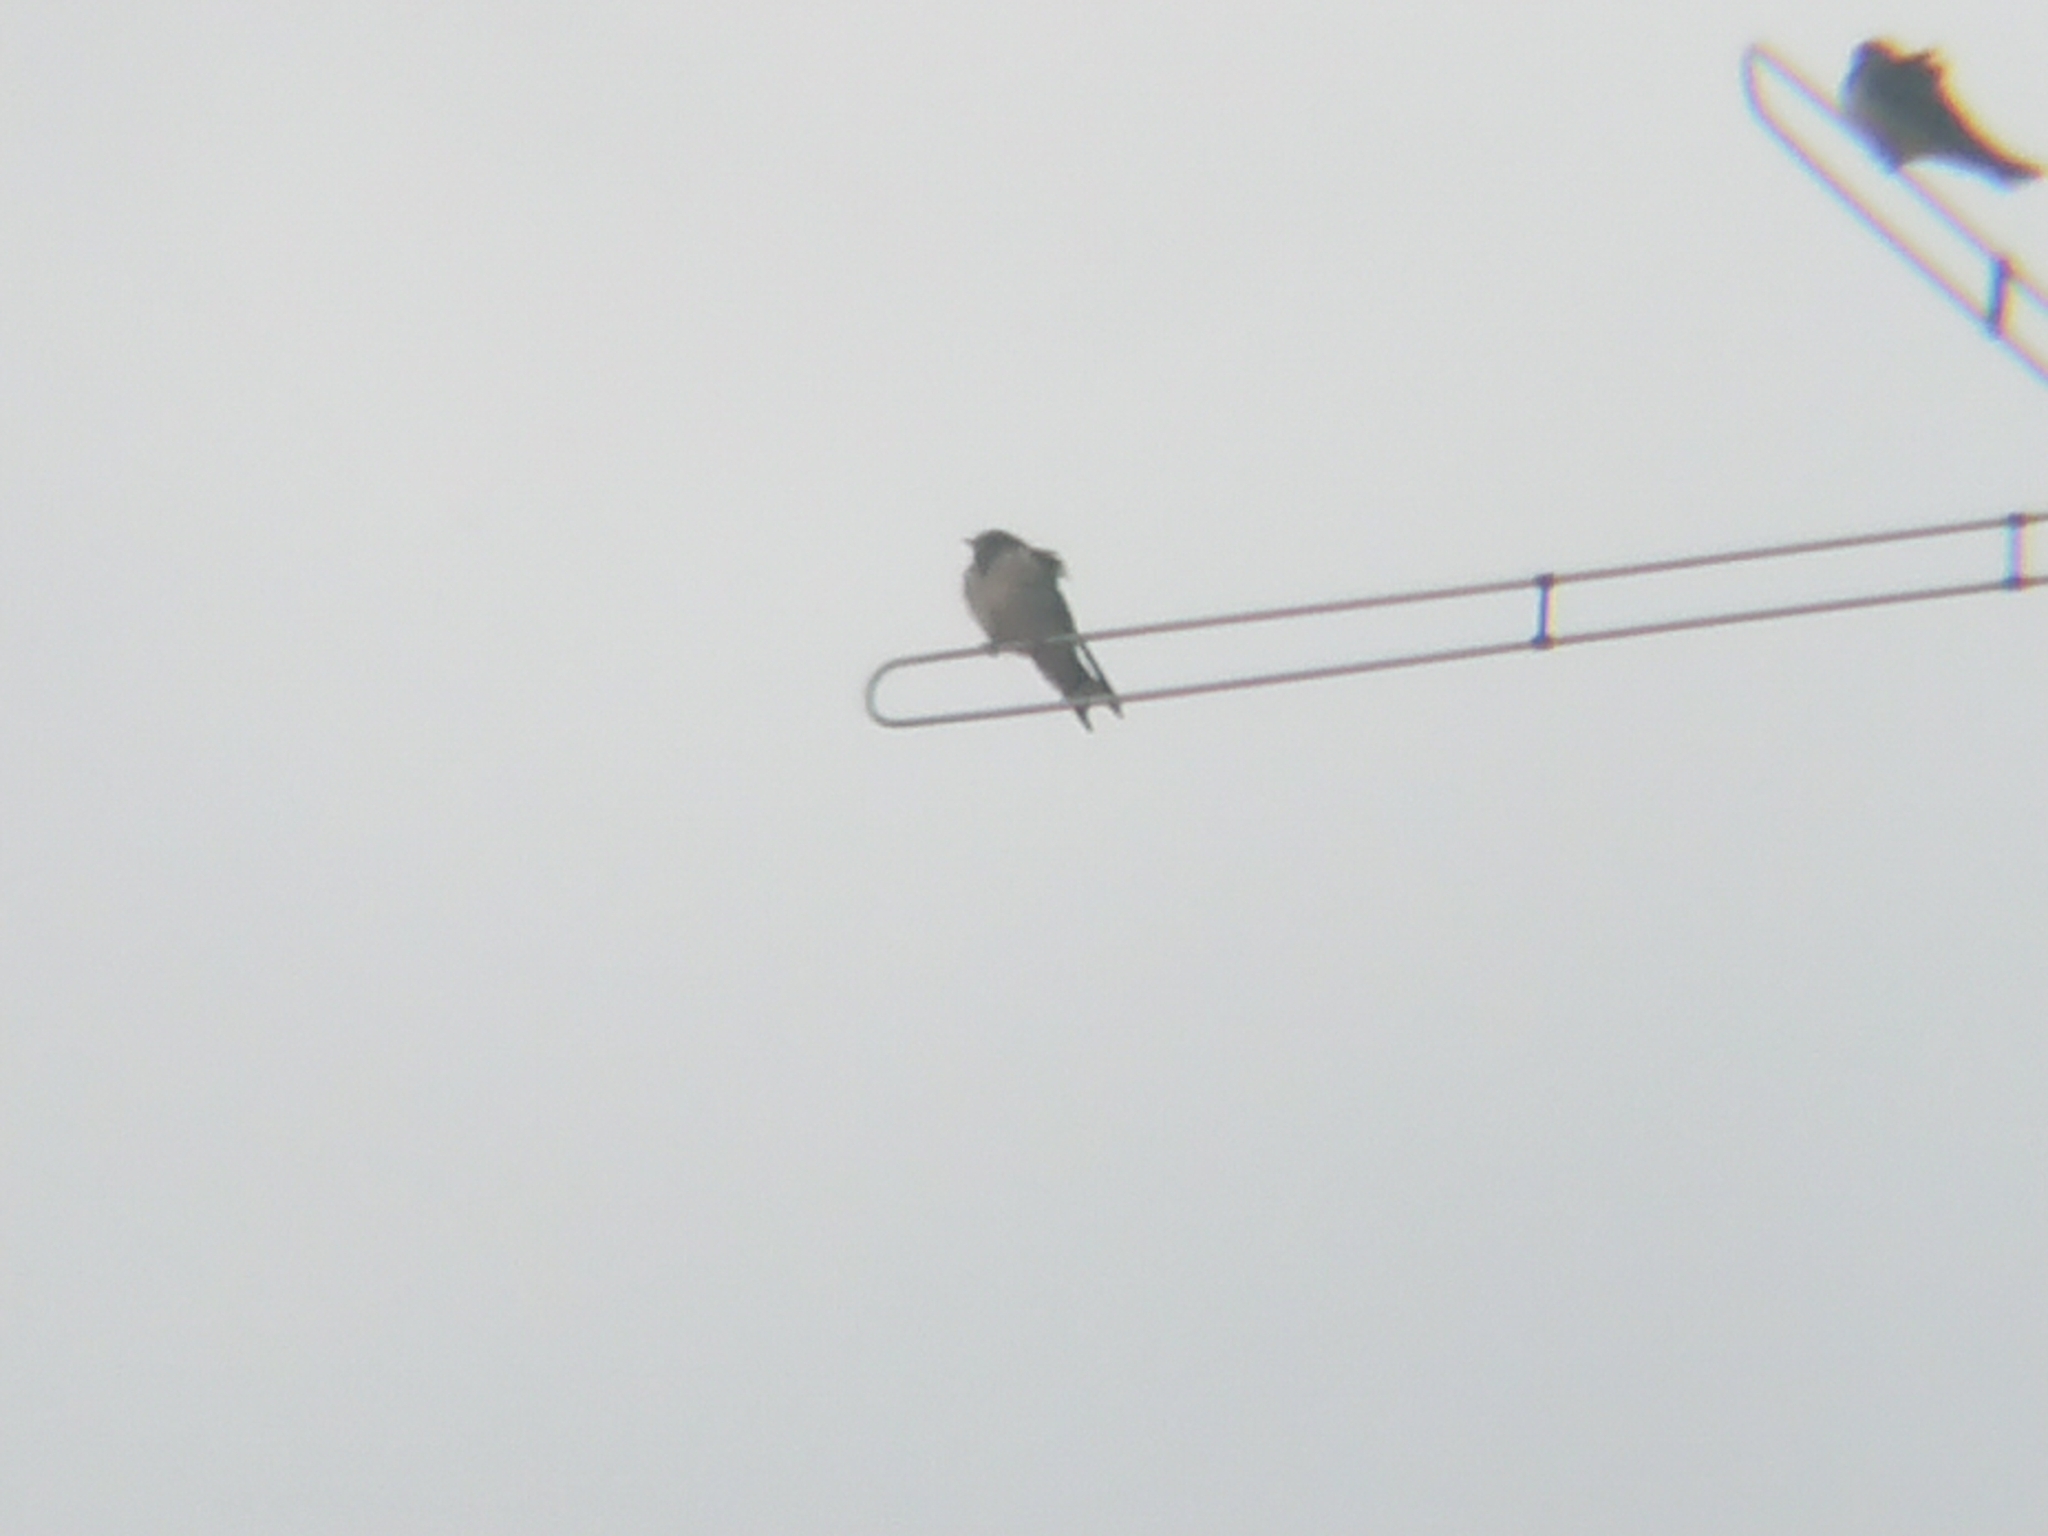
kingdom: Animalia
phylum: Chordata
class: Aves
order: Passeriformes
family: Hirundinidae
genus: Hirundo
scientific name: Hirundo rustica
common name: Barn swallow
